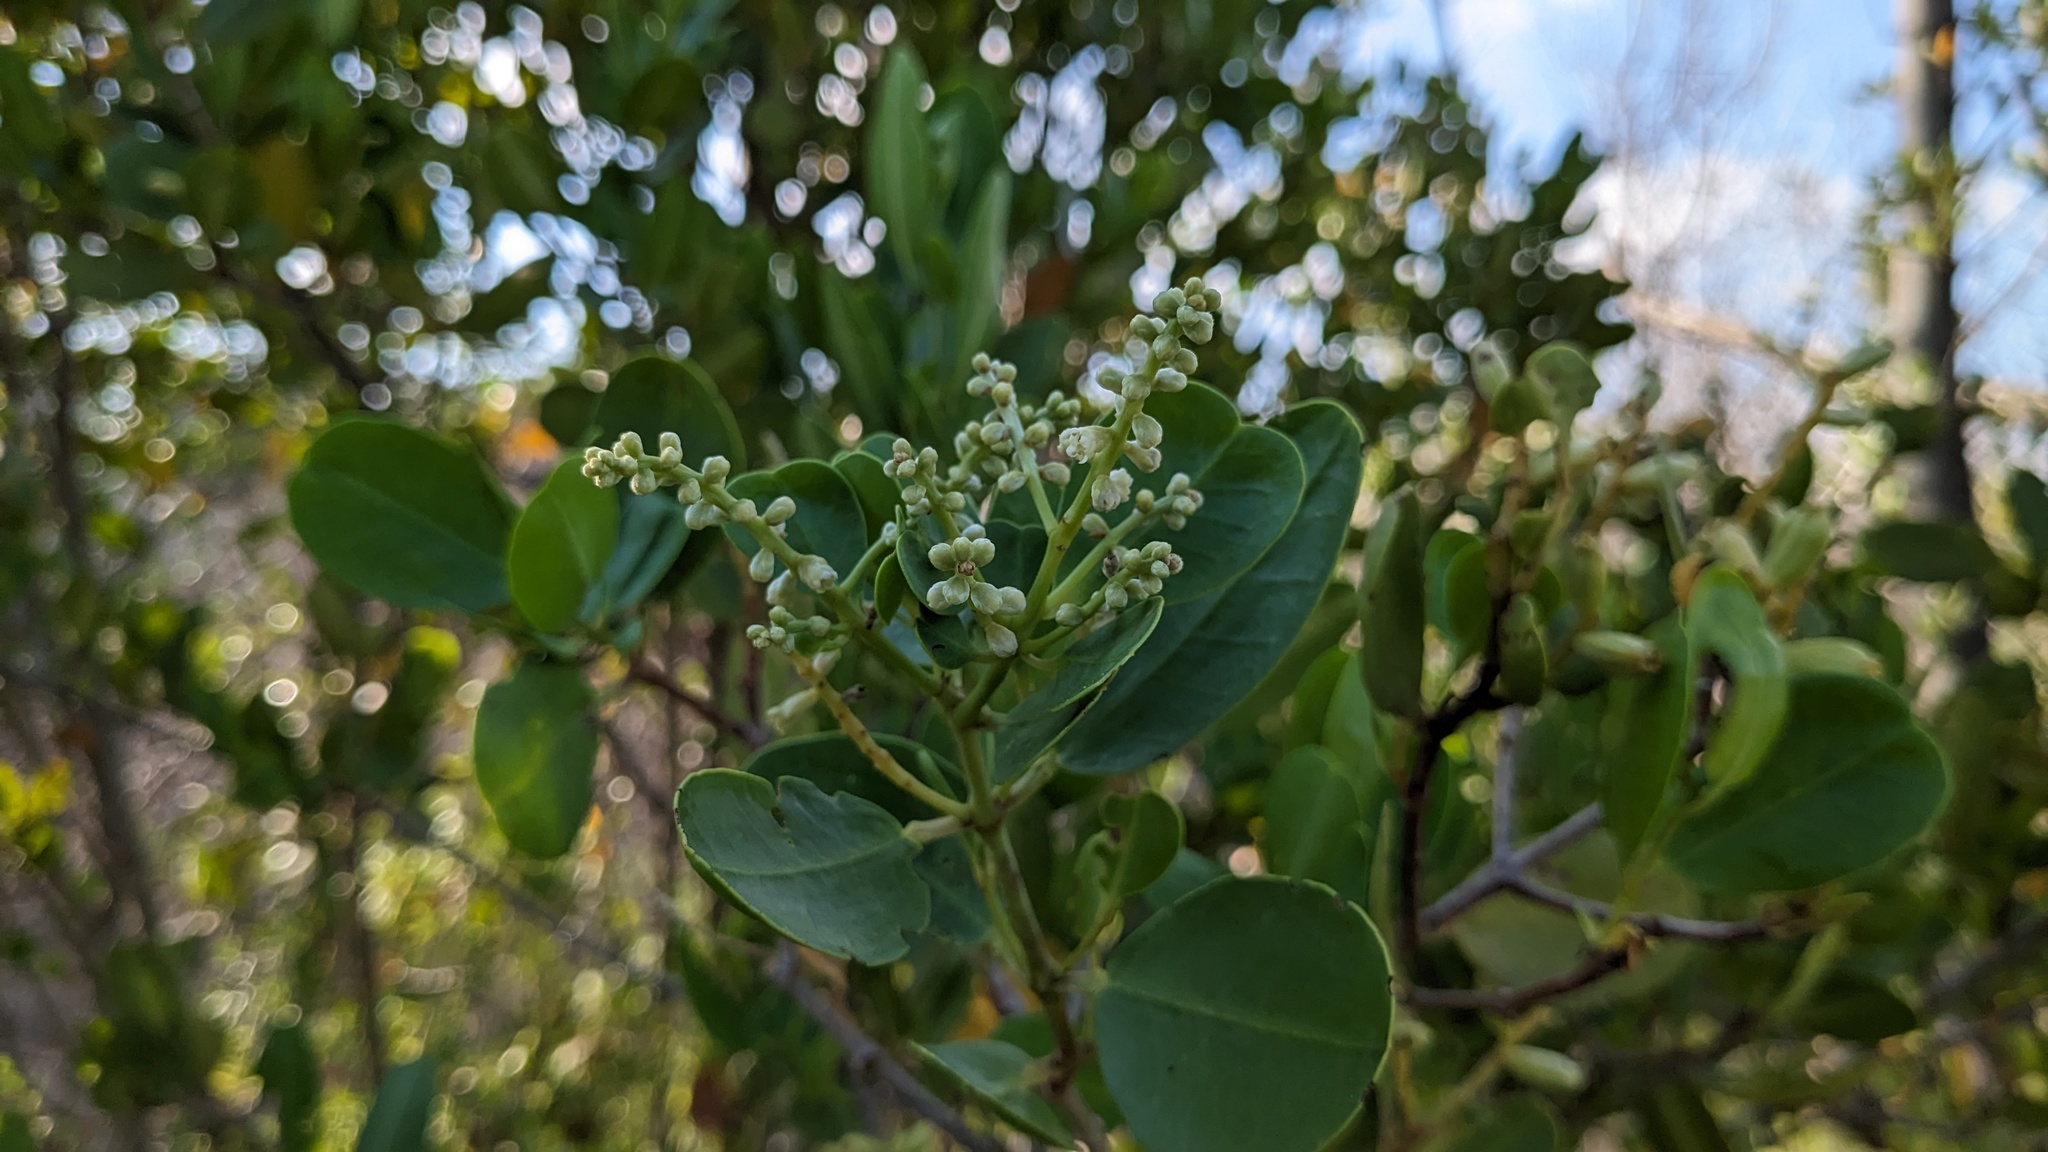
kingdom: Plantae
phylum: Tracheophyta
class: Magnoliopsida
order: Myrtales
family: Combretaceae
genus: Laguncularia
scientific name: Laguncularia racemosa
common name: White mangrove
